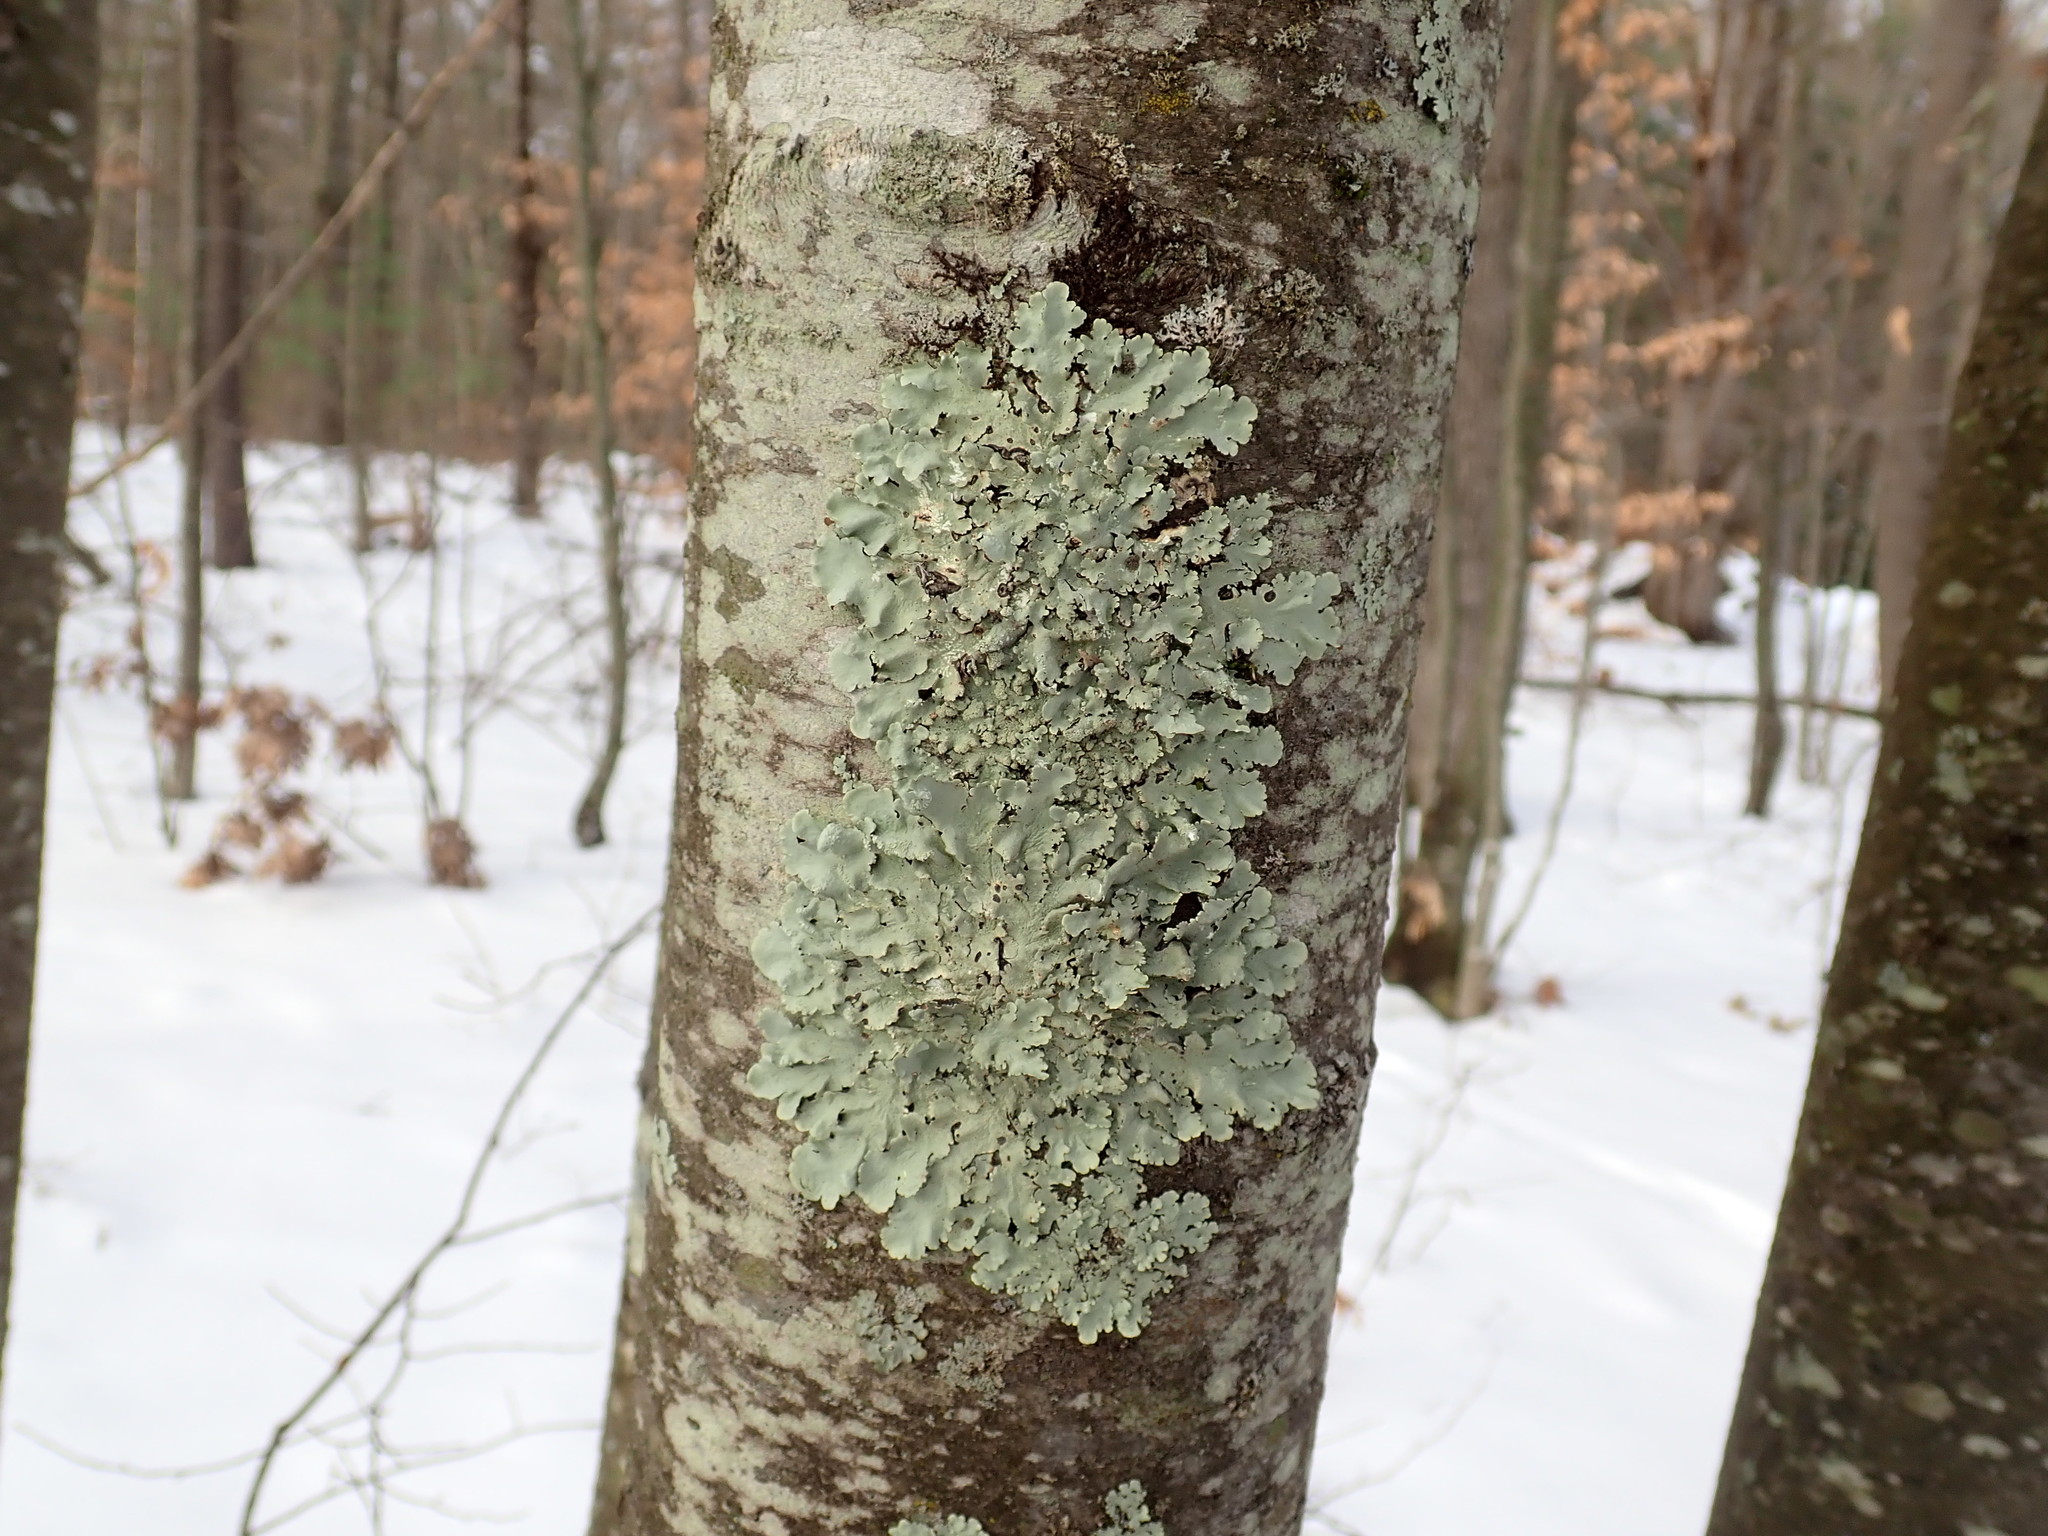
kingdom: Fungi
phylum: Ascomycota
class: Lecanoromycetes
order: Lecanorales
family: Parmeliaceae
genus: Flavoparmelia
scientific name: Flavoparmelia caperata
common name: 40-mile per hour lichen
